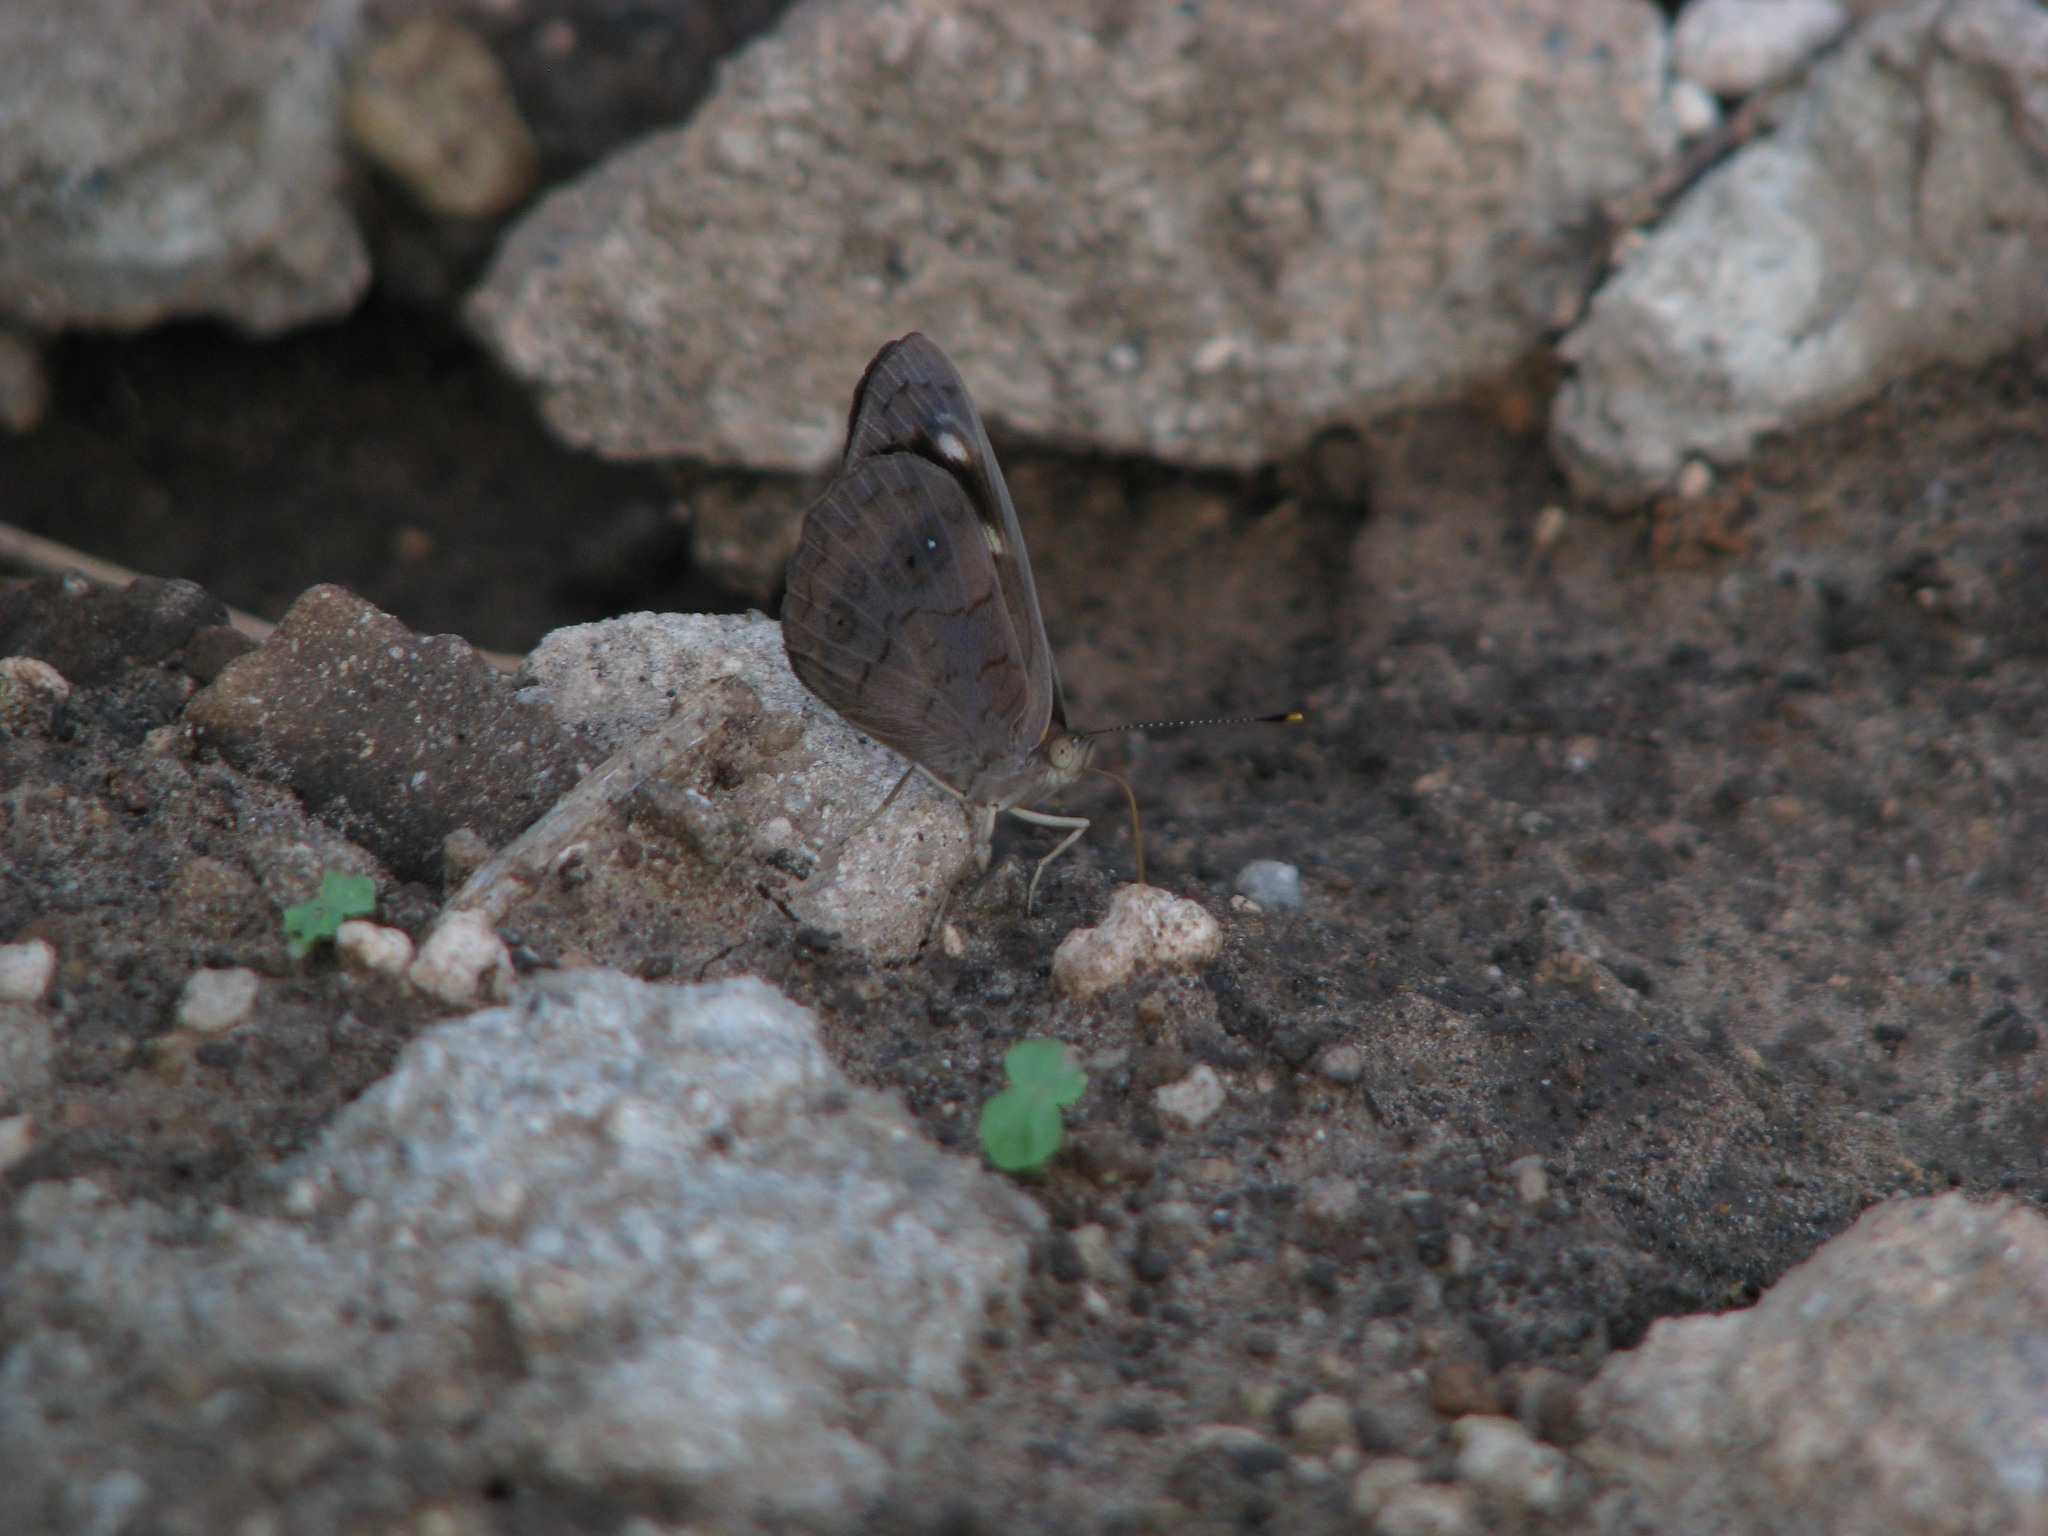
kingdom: Animalia
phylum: Arthropoda
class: Insecta
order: Lepidoptera
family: Nymphalidae
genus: Eunica
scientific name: Eunica monima
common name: Dingy purplewing
